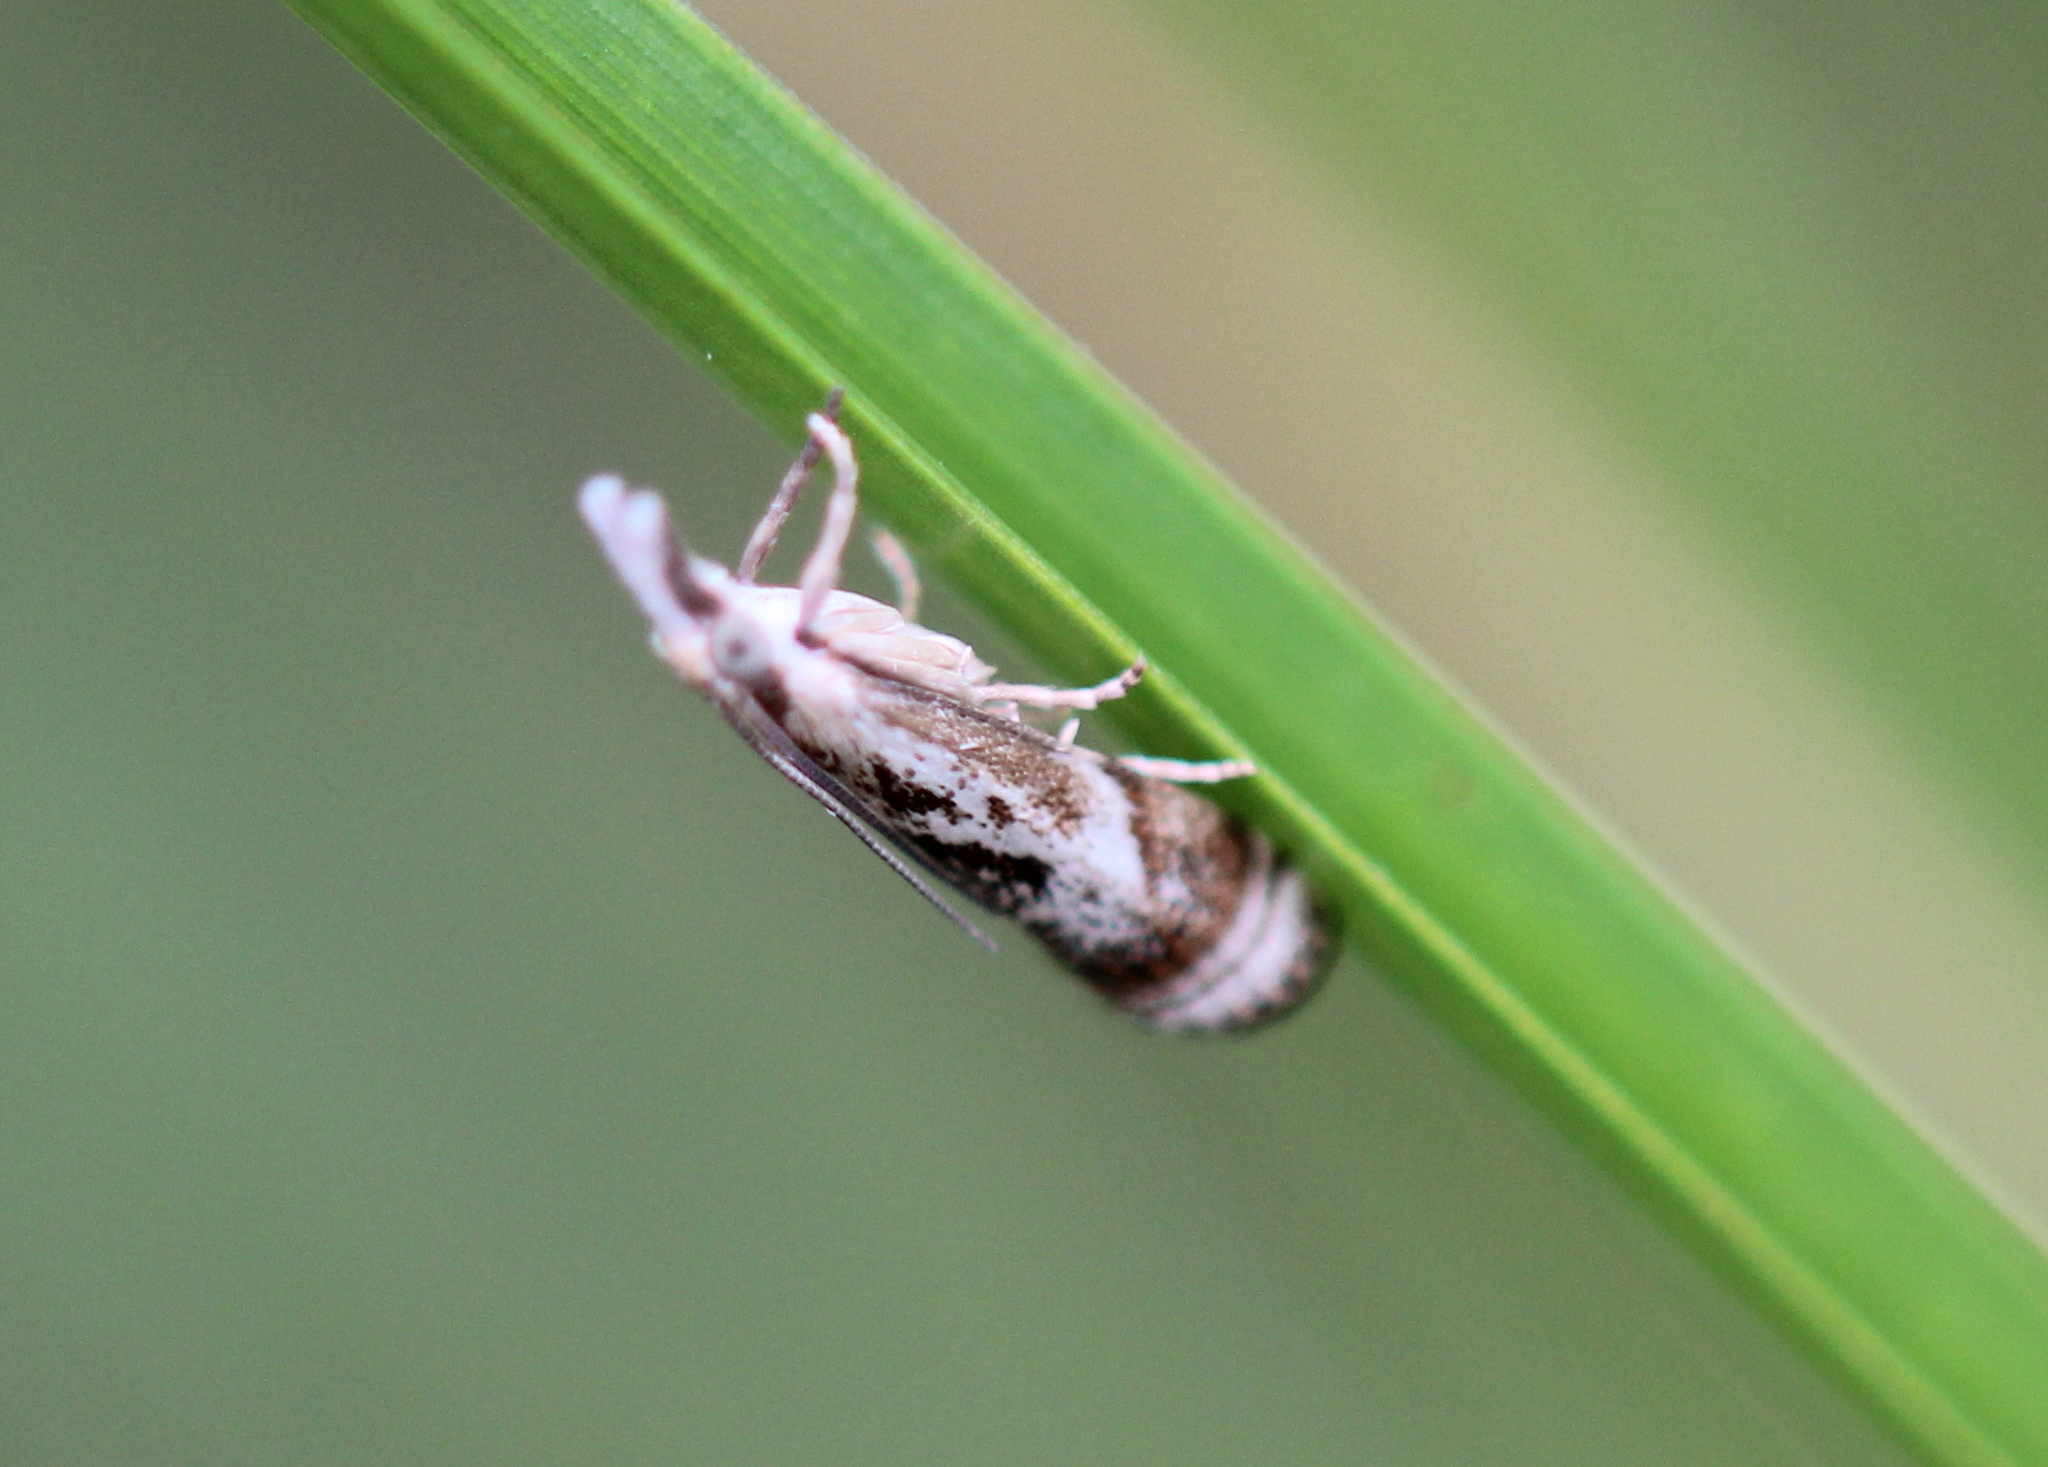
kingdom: Animalia
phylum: Arthropoda
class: Insecta
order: Lepidoptera
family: Crambidae
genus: Microcrambus
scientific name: Microcrambus elegans
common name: Elegant grass-veneer
